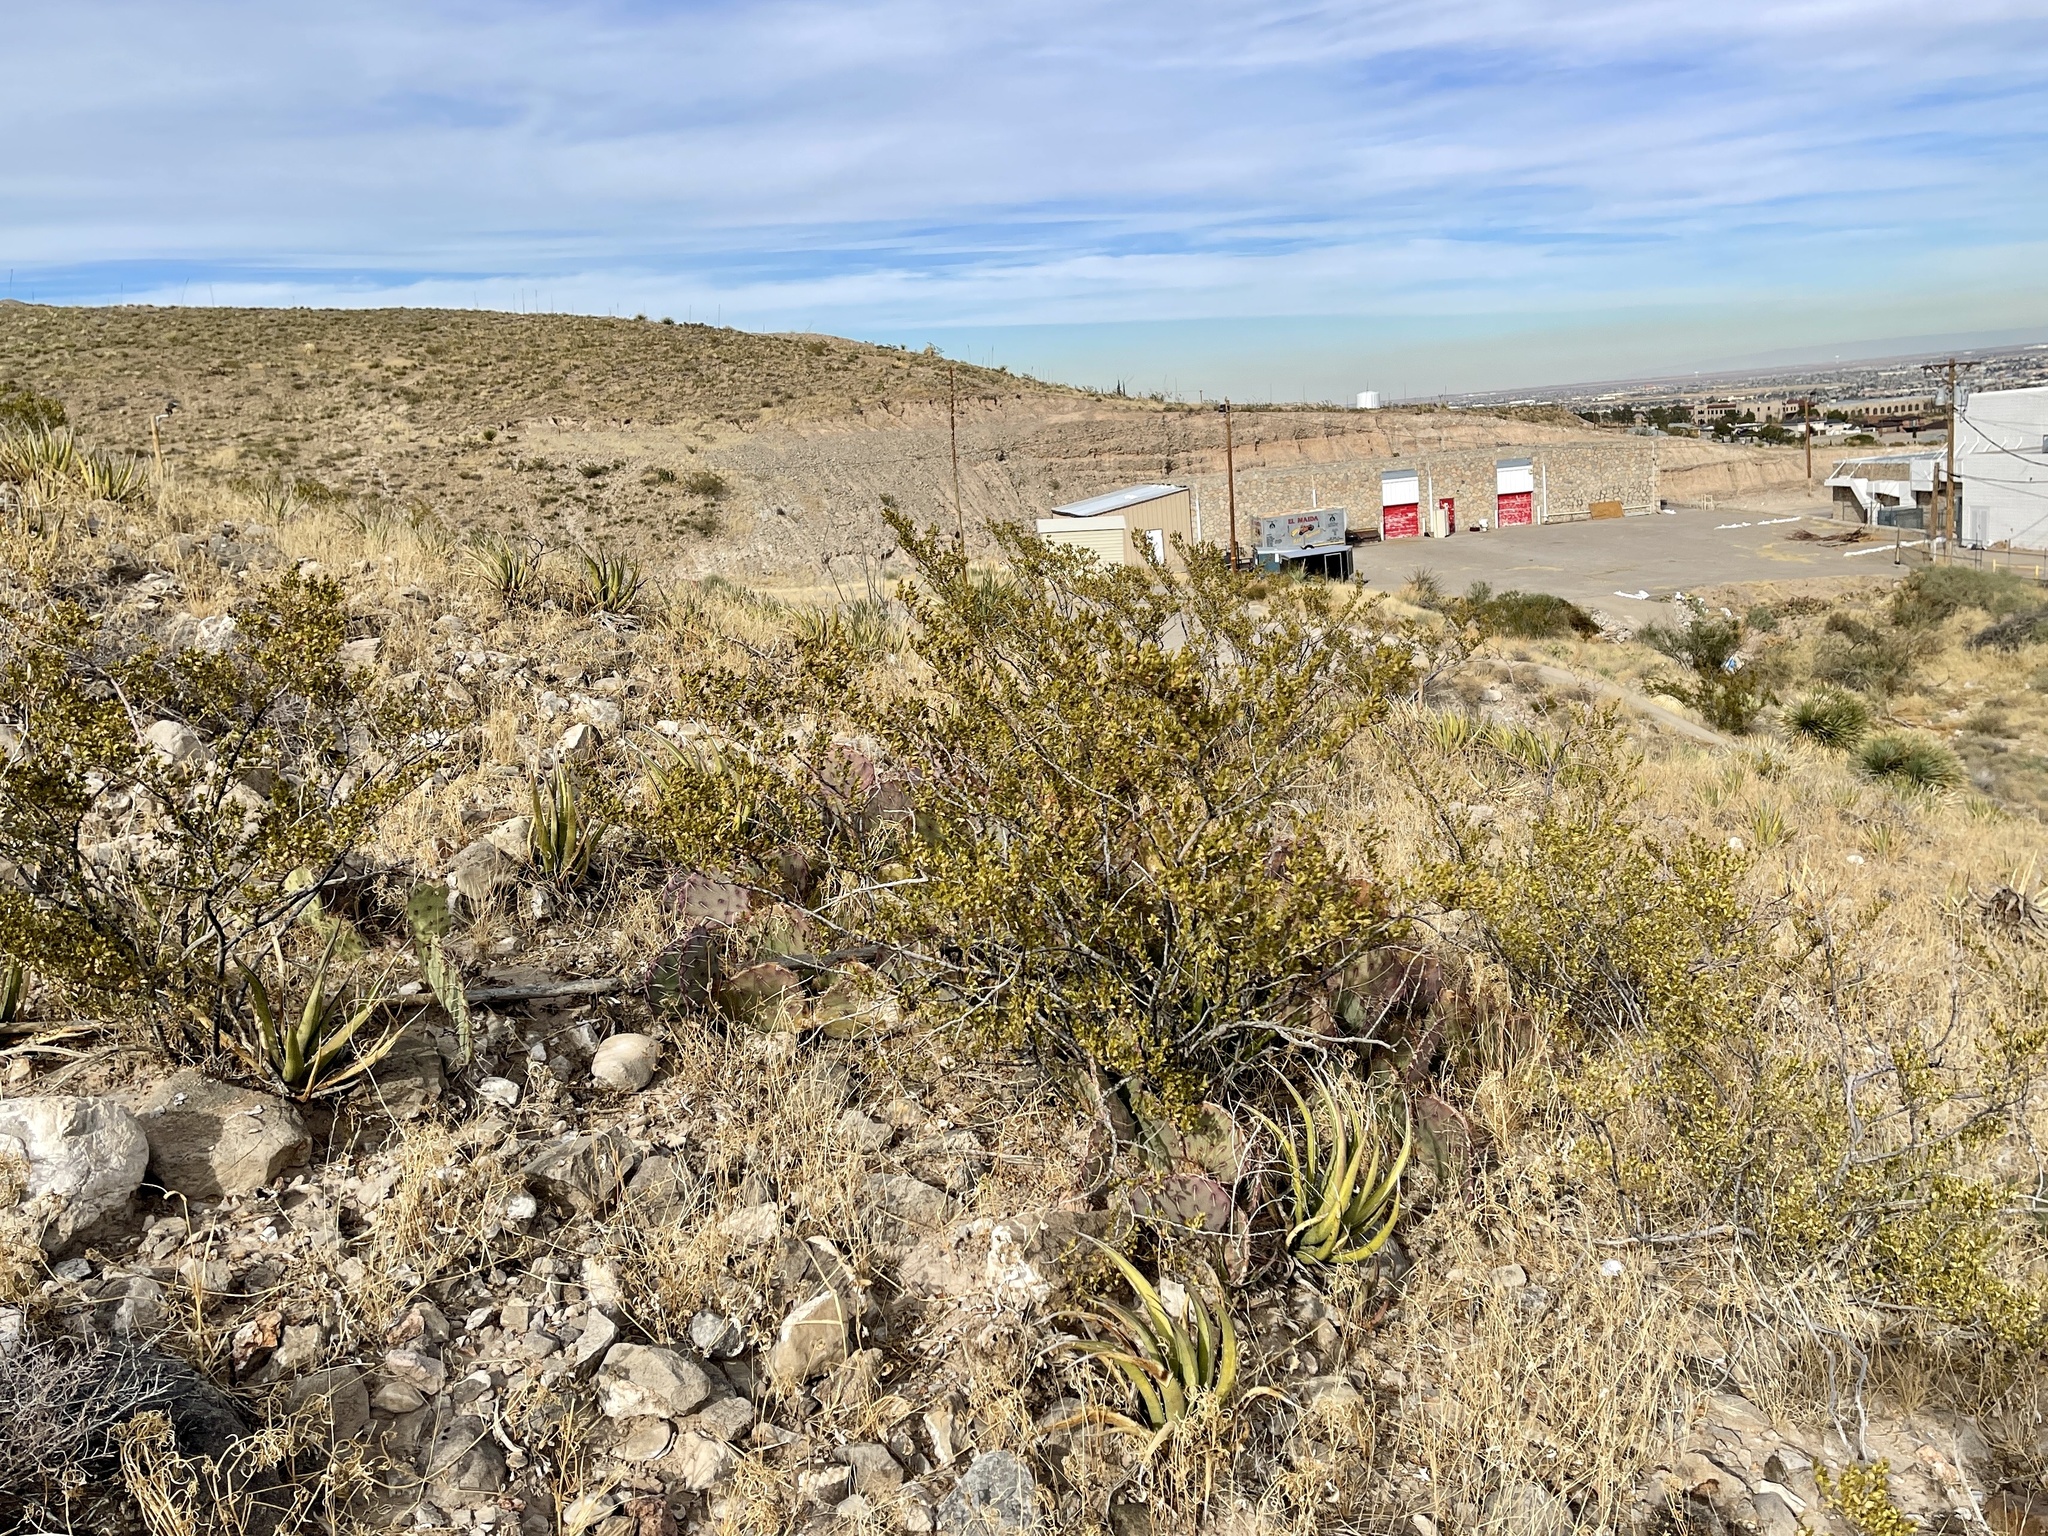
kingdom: Plantae
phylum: Tracheophyta
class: Magnoliopsida
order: Zygophyllales
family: Zygophyllaceae
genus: Larrea
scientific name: Larrea tridentata
